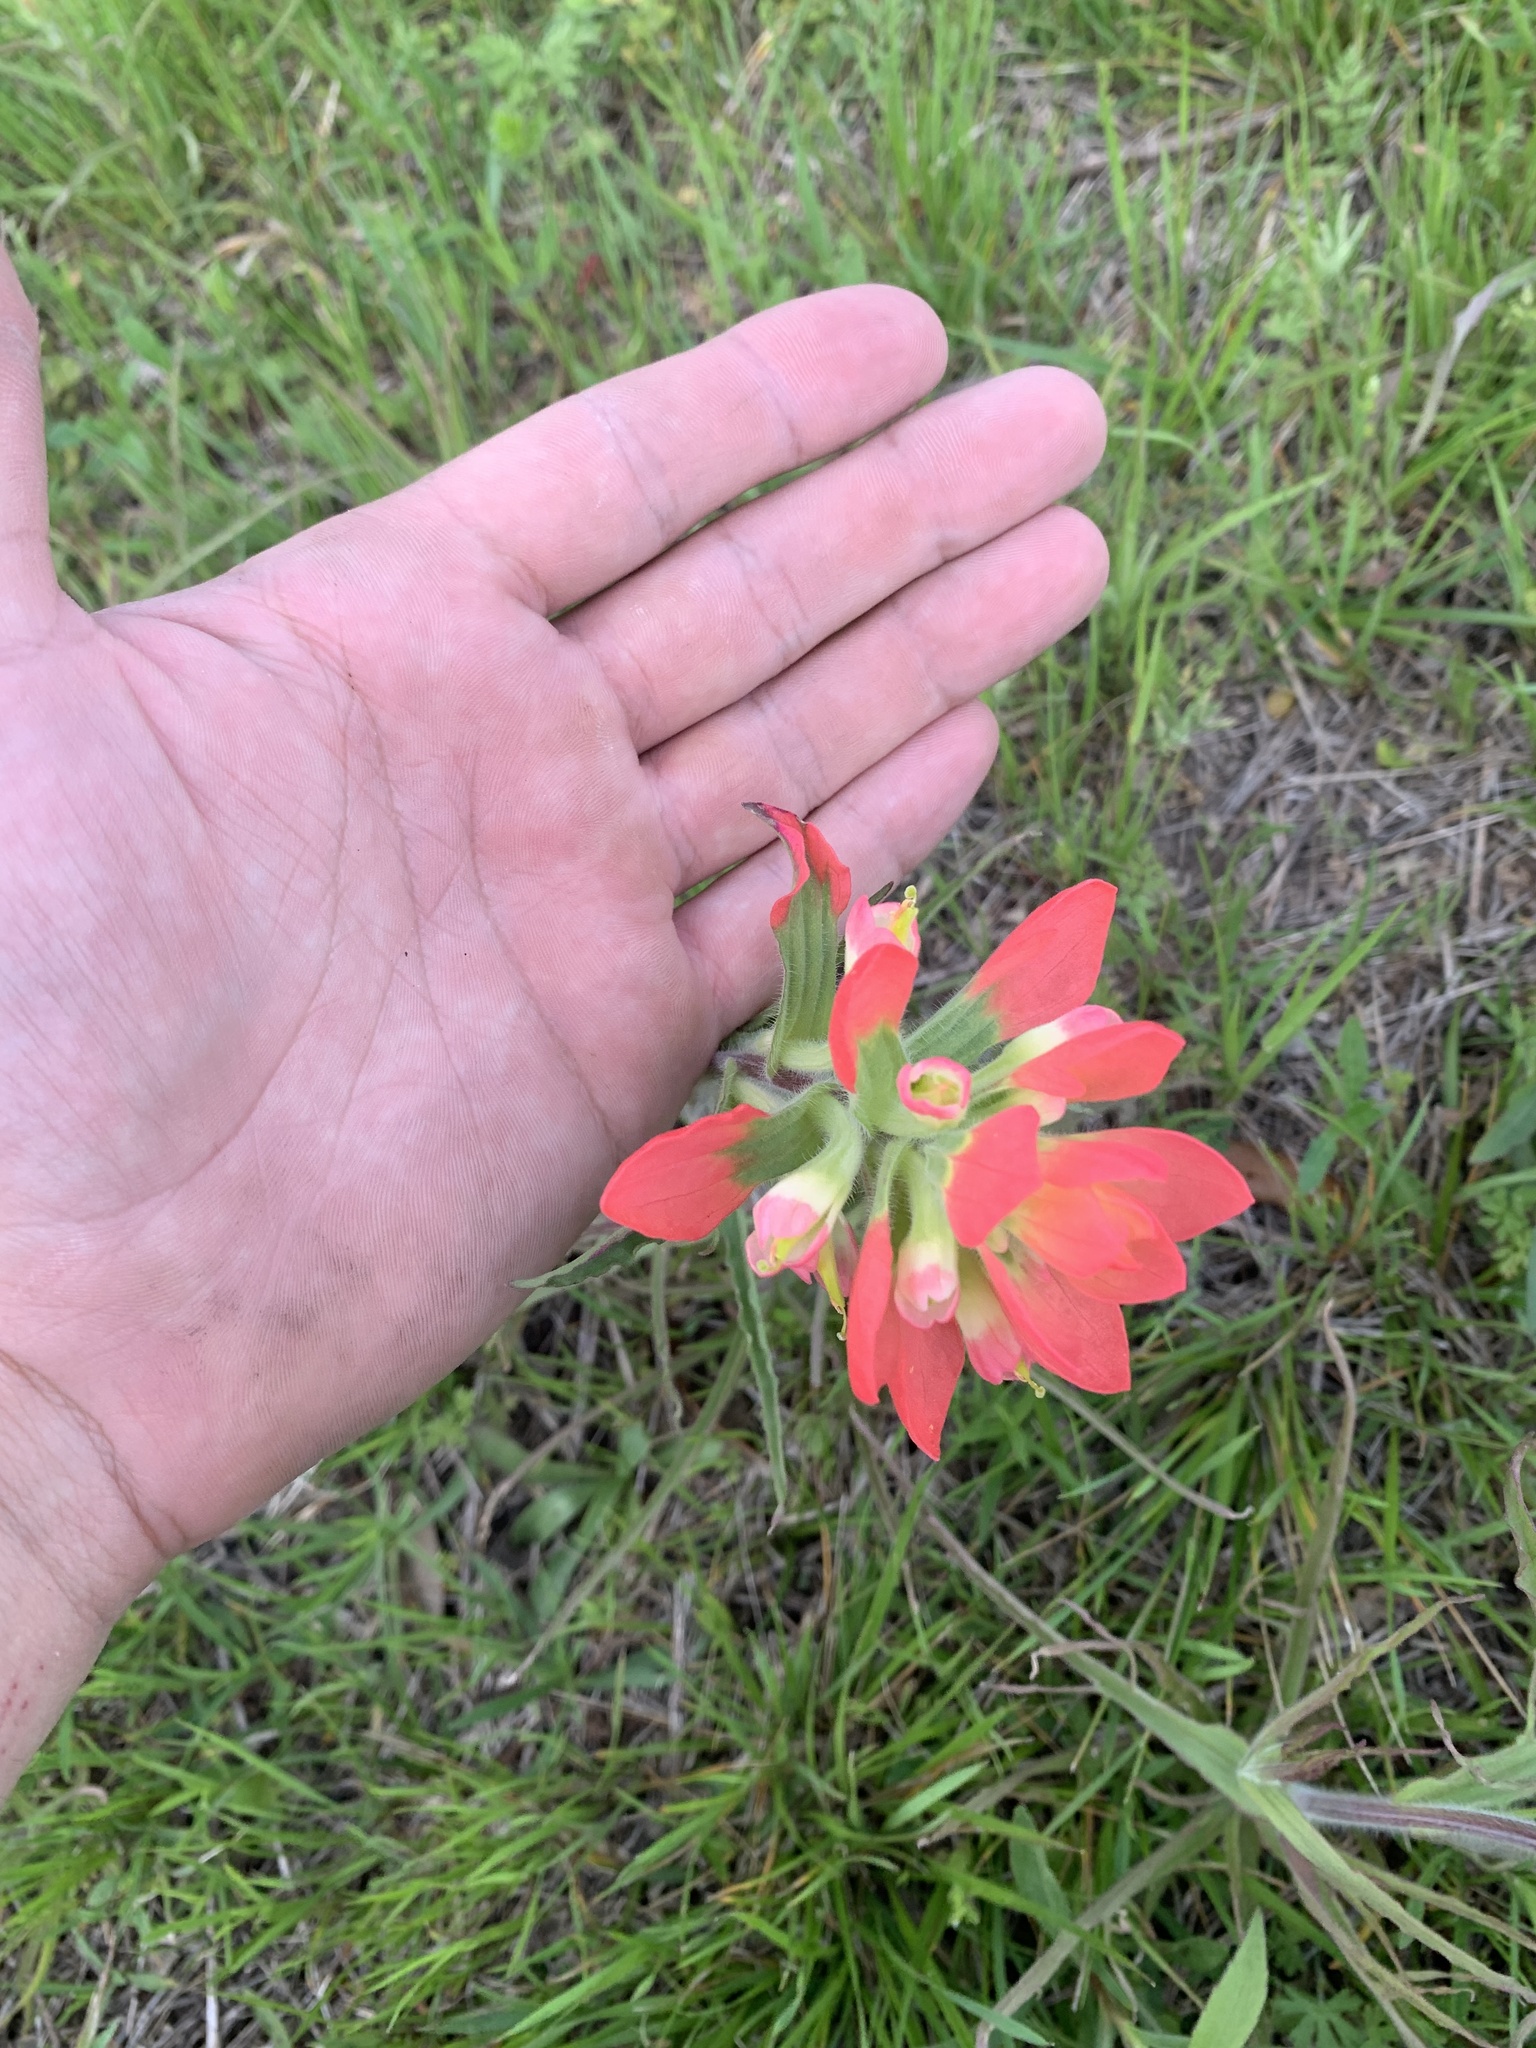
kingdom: Plantae
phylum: Tracheophyta
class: Magnoliopsida
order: Lamiales
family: Orobanchaceae
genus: Castilleja
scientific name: Castilleja indivisa
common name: Texas paintbrush
